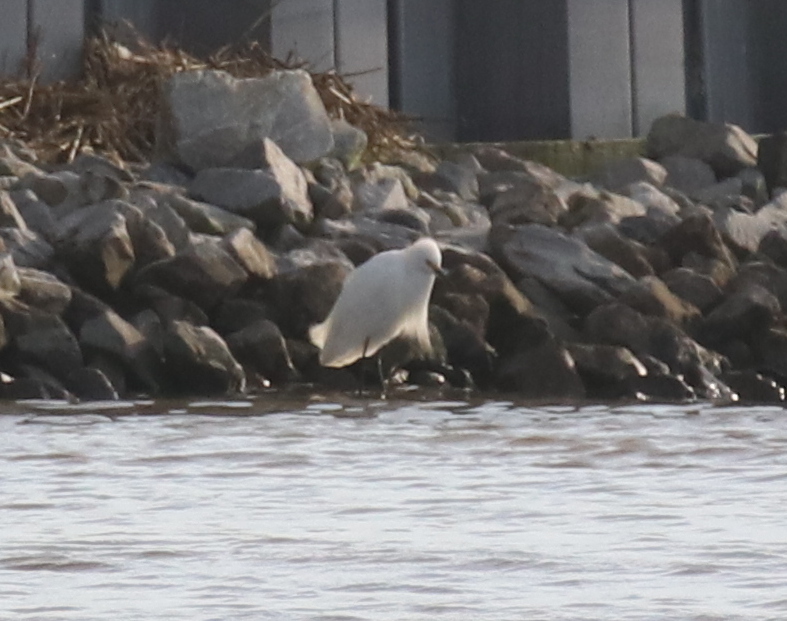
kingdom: Animalia
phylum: Chordata
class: Aves
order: Pelecaniformes
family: Ardeidae
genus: Egretta
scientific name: Egretta thula
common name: Snowy egret
